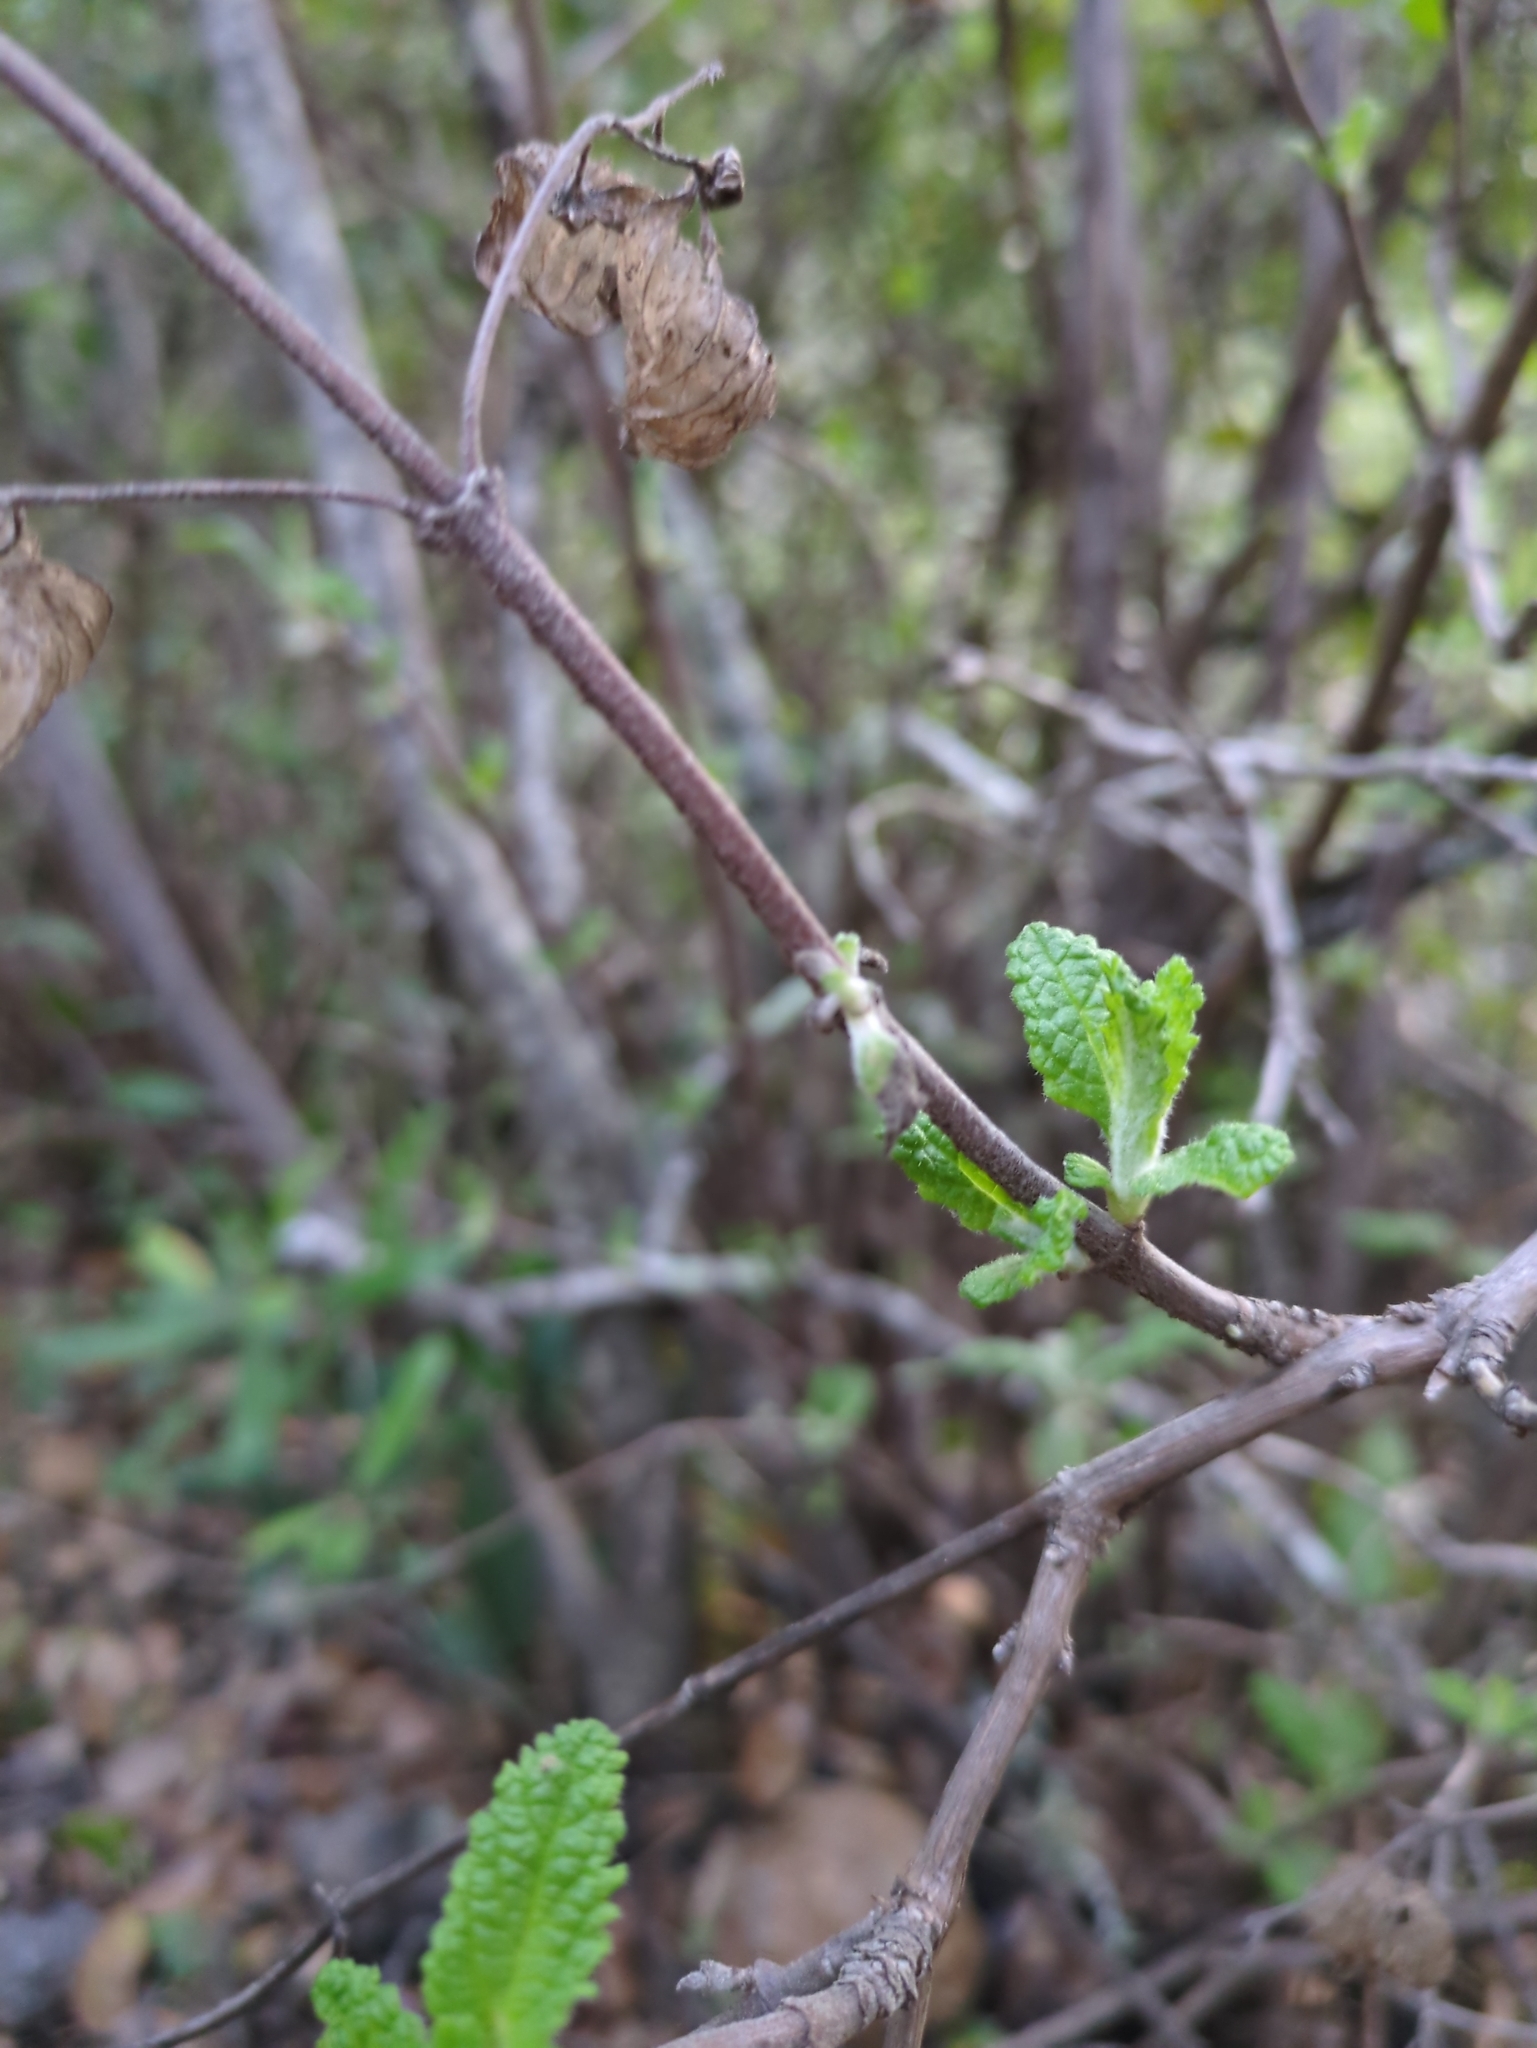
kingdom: Plantae
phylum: Tracheophyta
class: Magnoliopsida
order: Lamiales
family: Lamiaceae
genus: Lepechinia
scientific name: Lepechinia calycina
